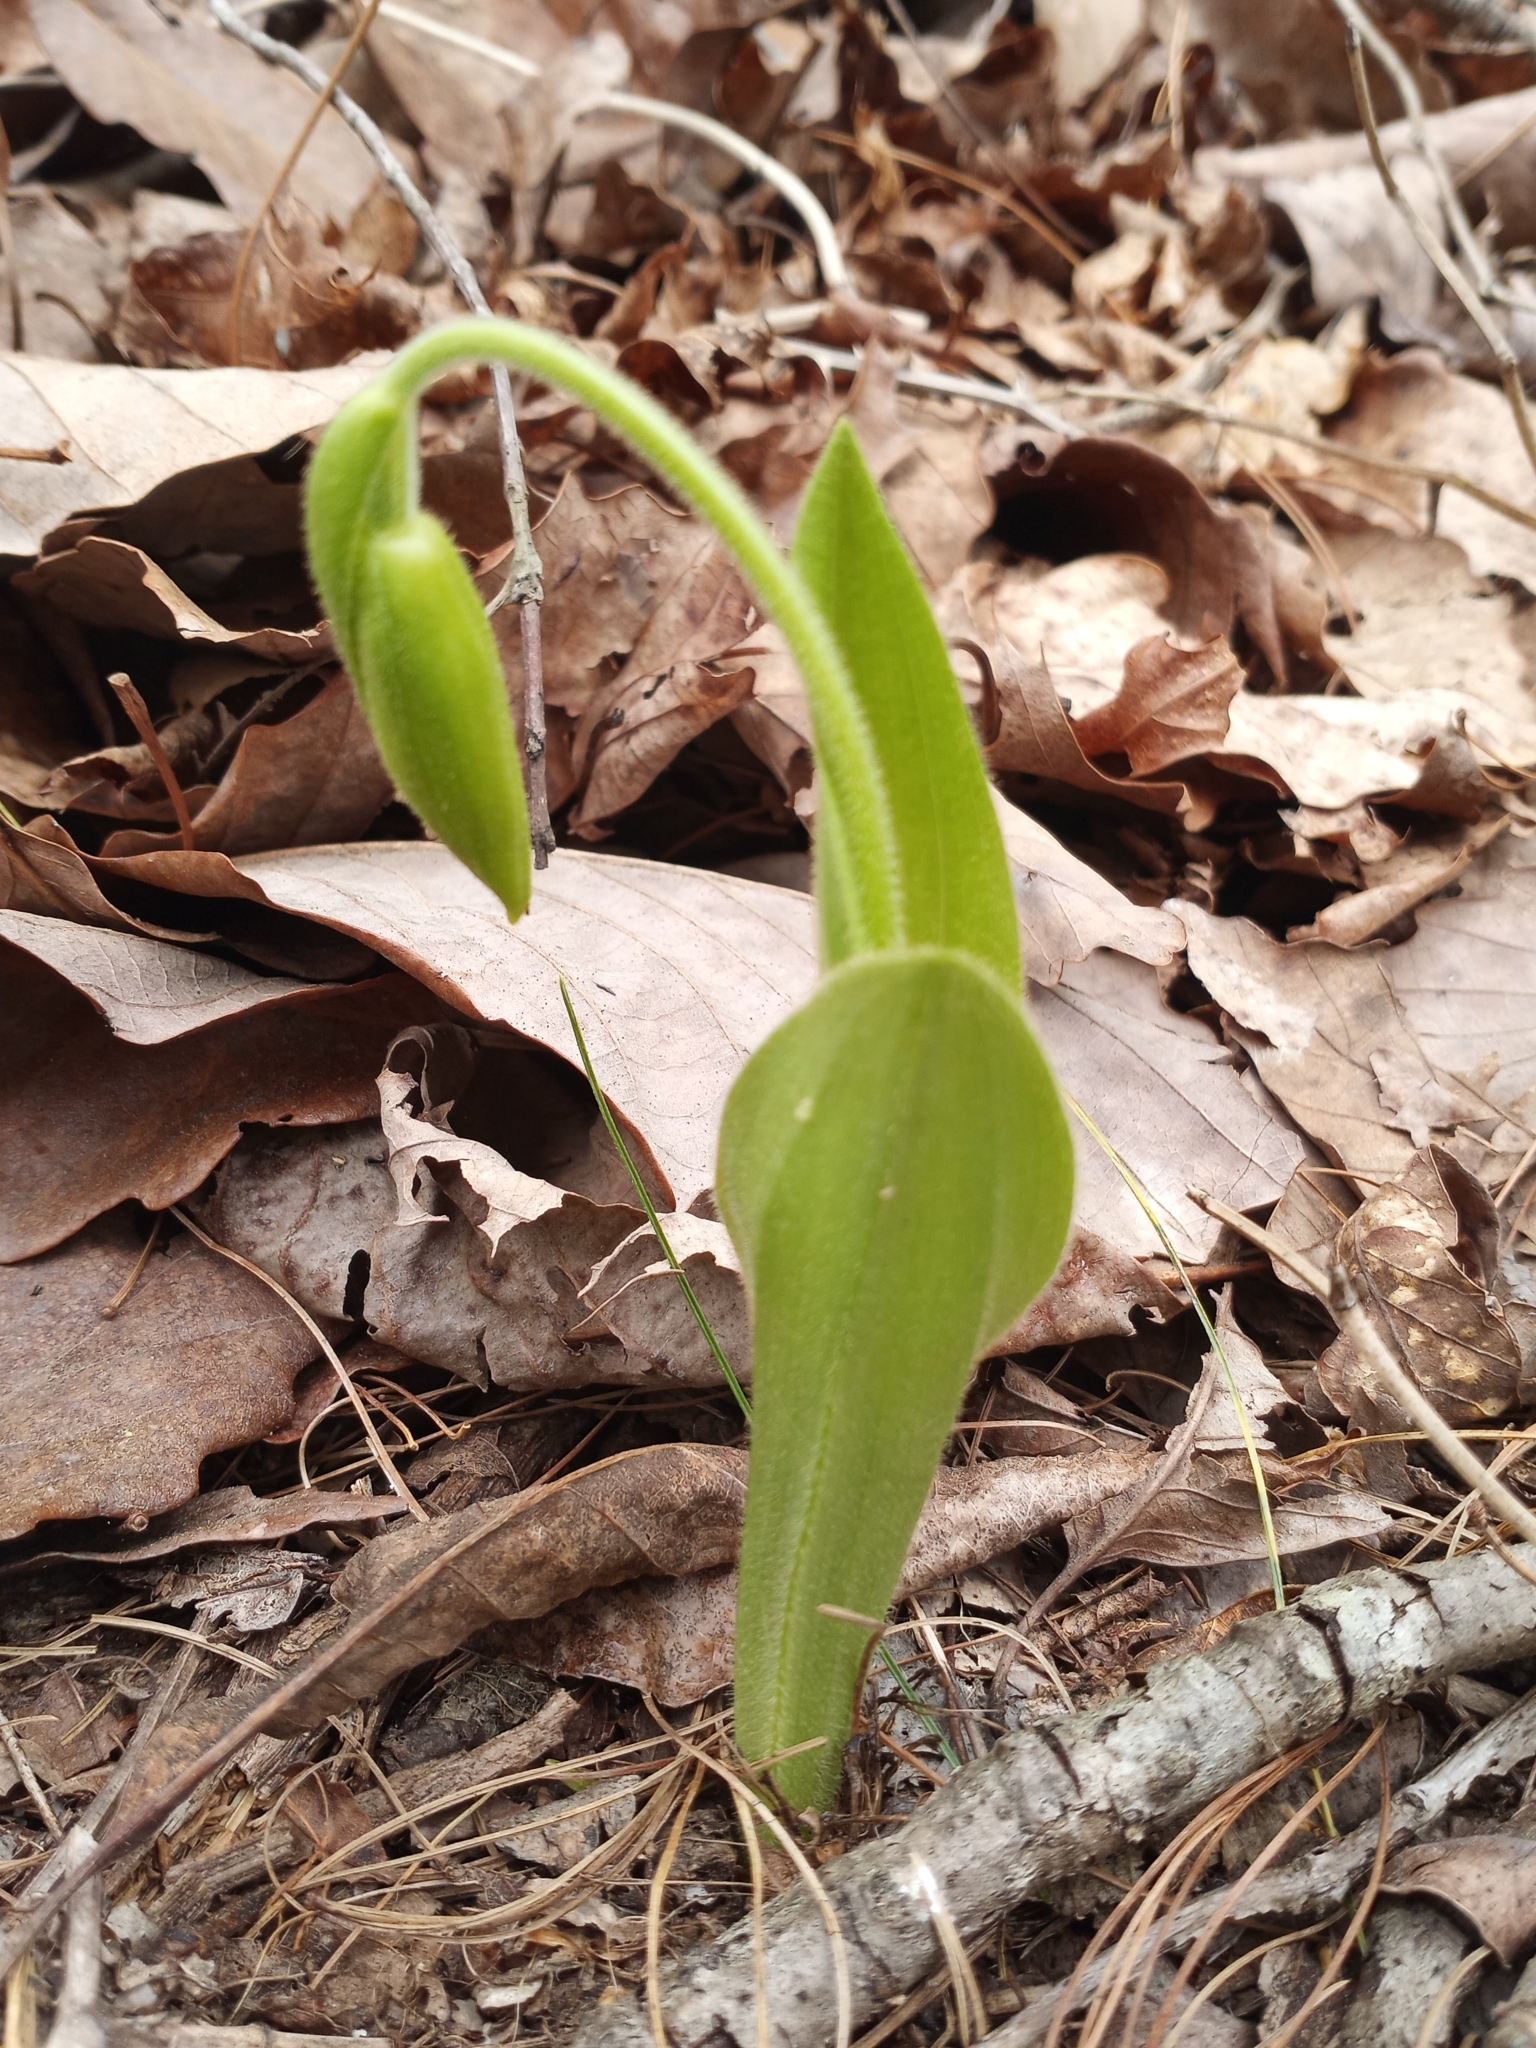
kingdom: Plantae
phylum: Tracheophyta
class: Liliopsida
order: Asparagales
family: Orchidaceae
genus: Cypripedium
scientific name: Cypripedium acaule
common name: Pink lady's-slipper
